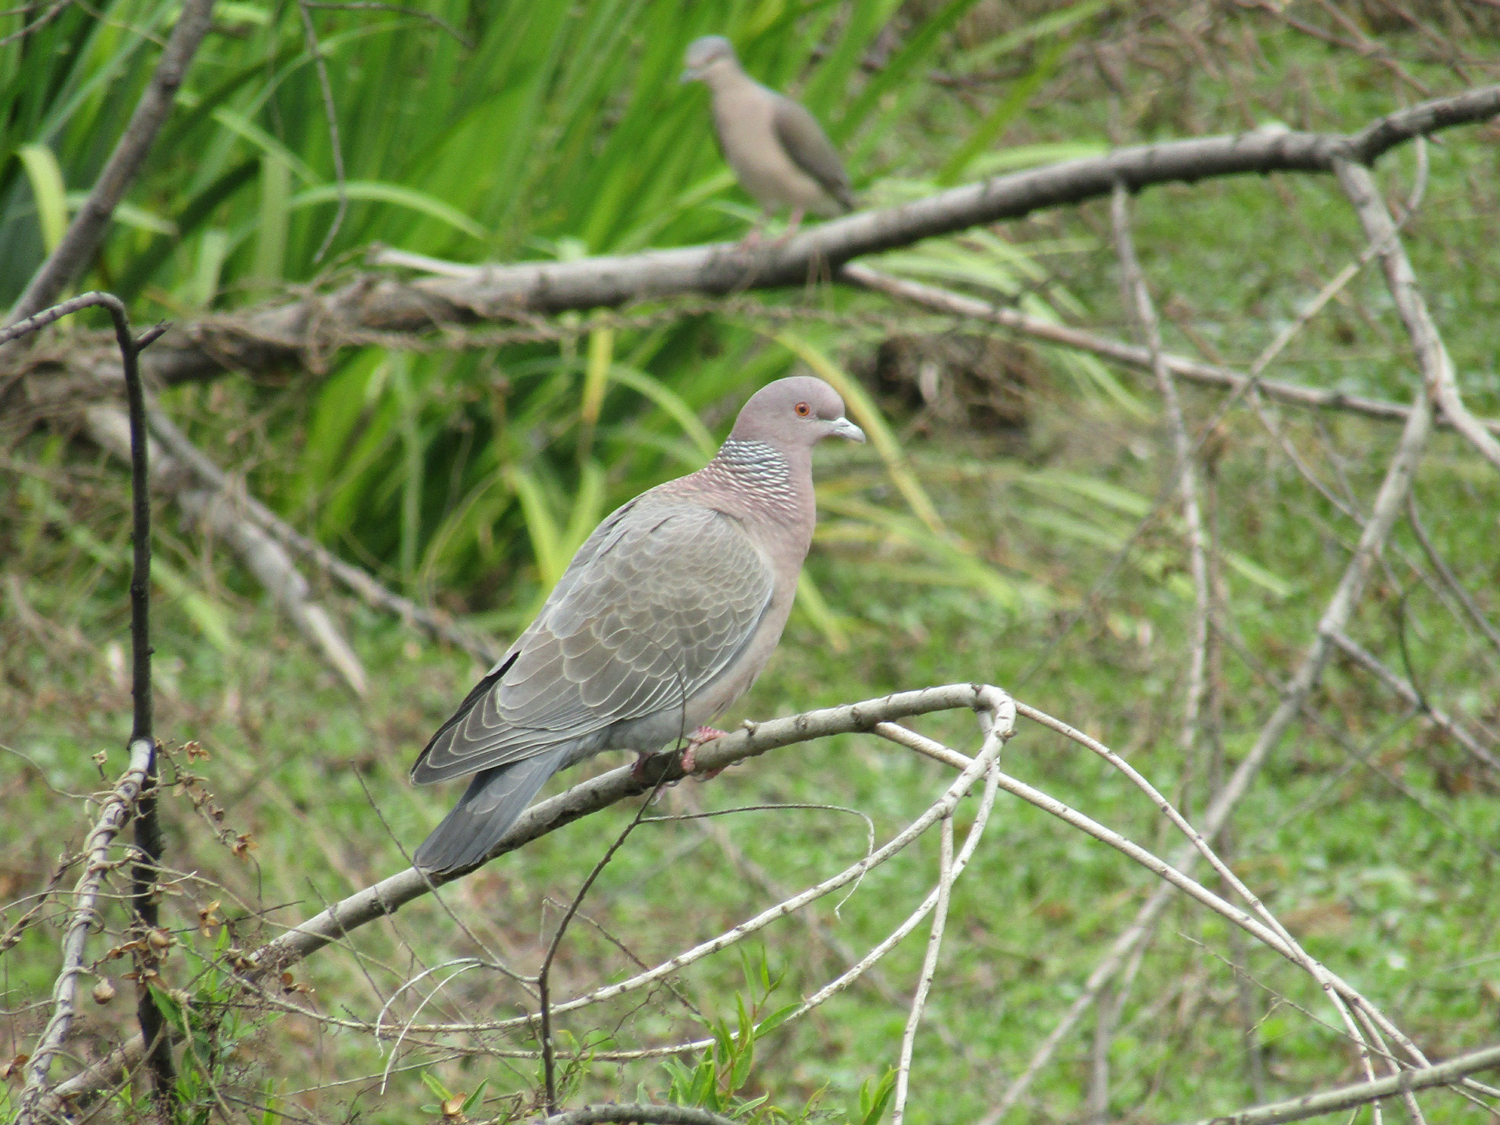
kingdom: Animalia
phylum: Chordata
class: Aves
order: Columbiformes
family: Columbidae
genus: Patagioenas
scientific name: Patagioenas picazuro
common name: Picazuro pigeon
